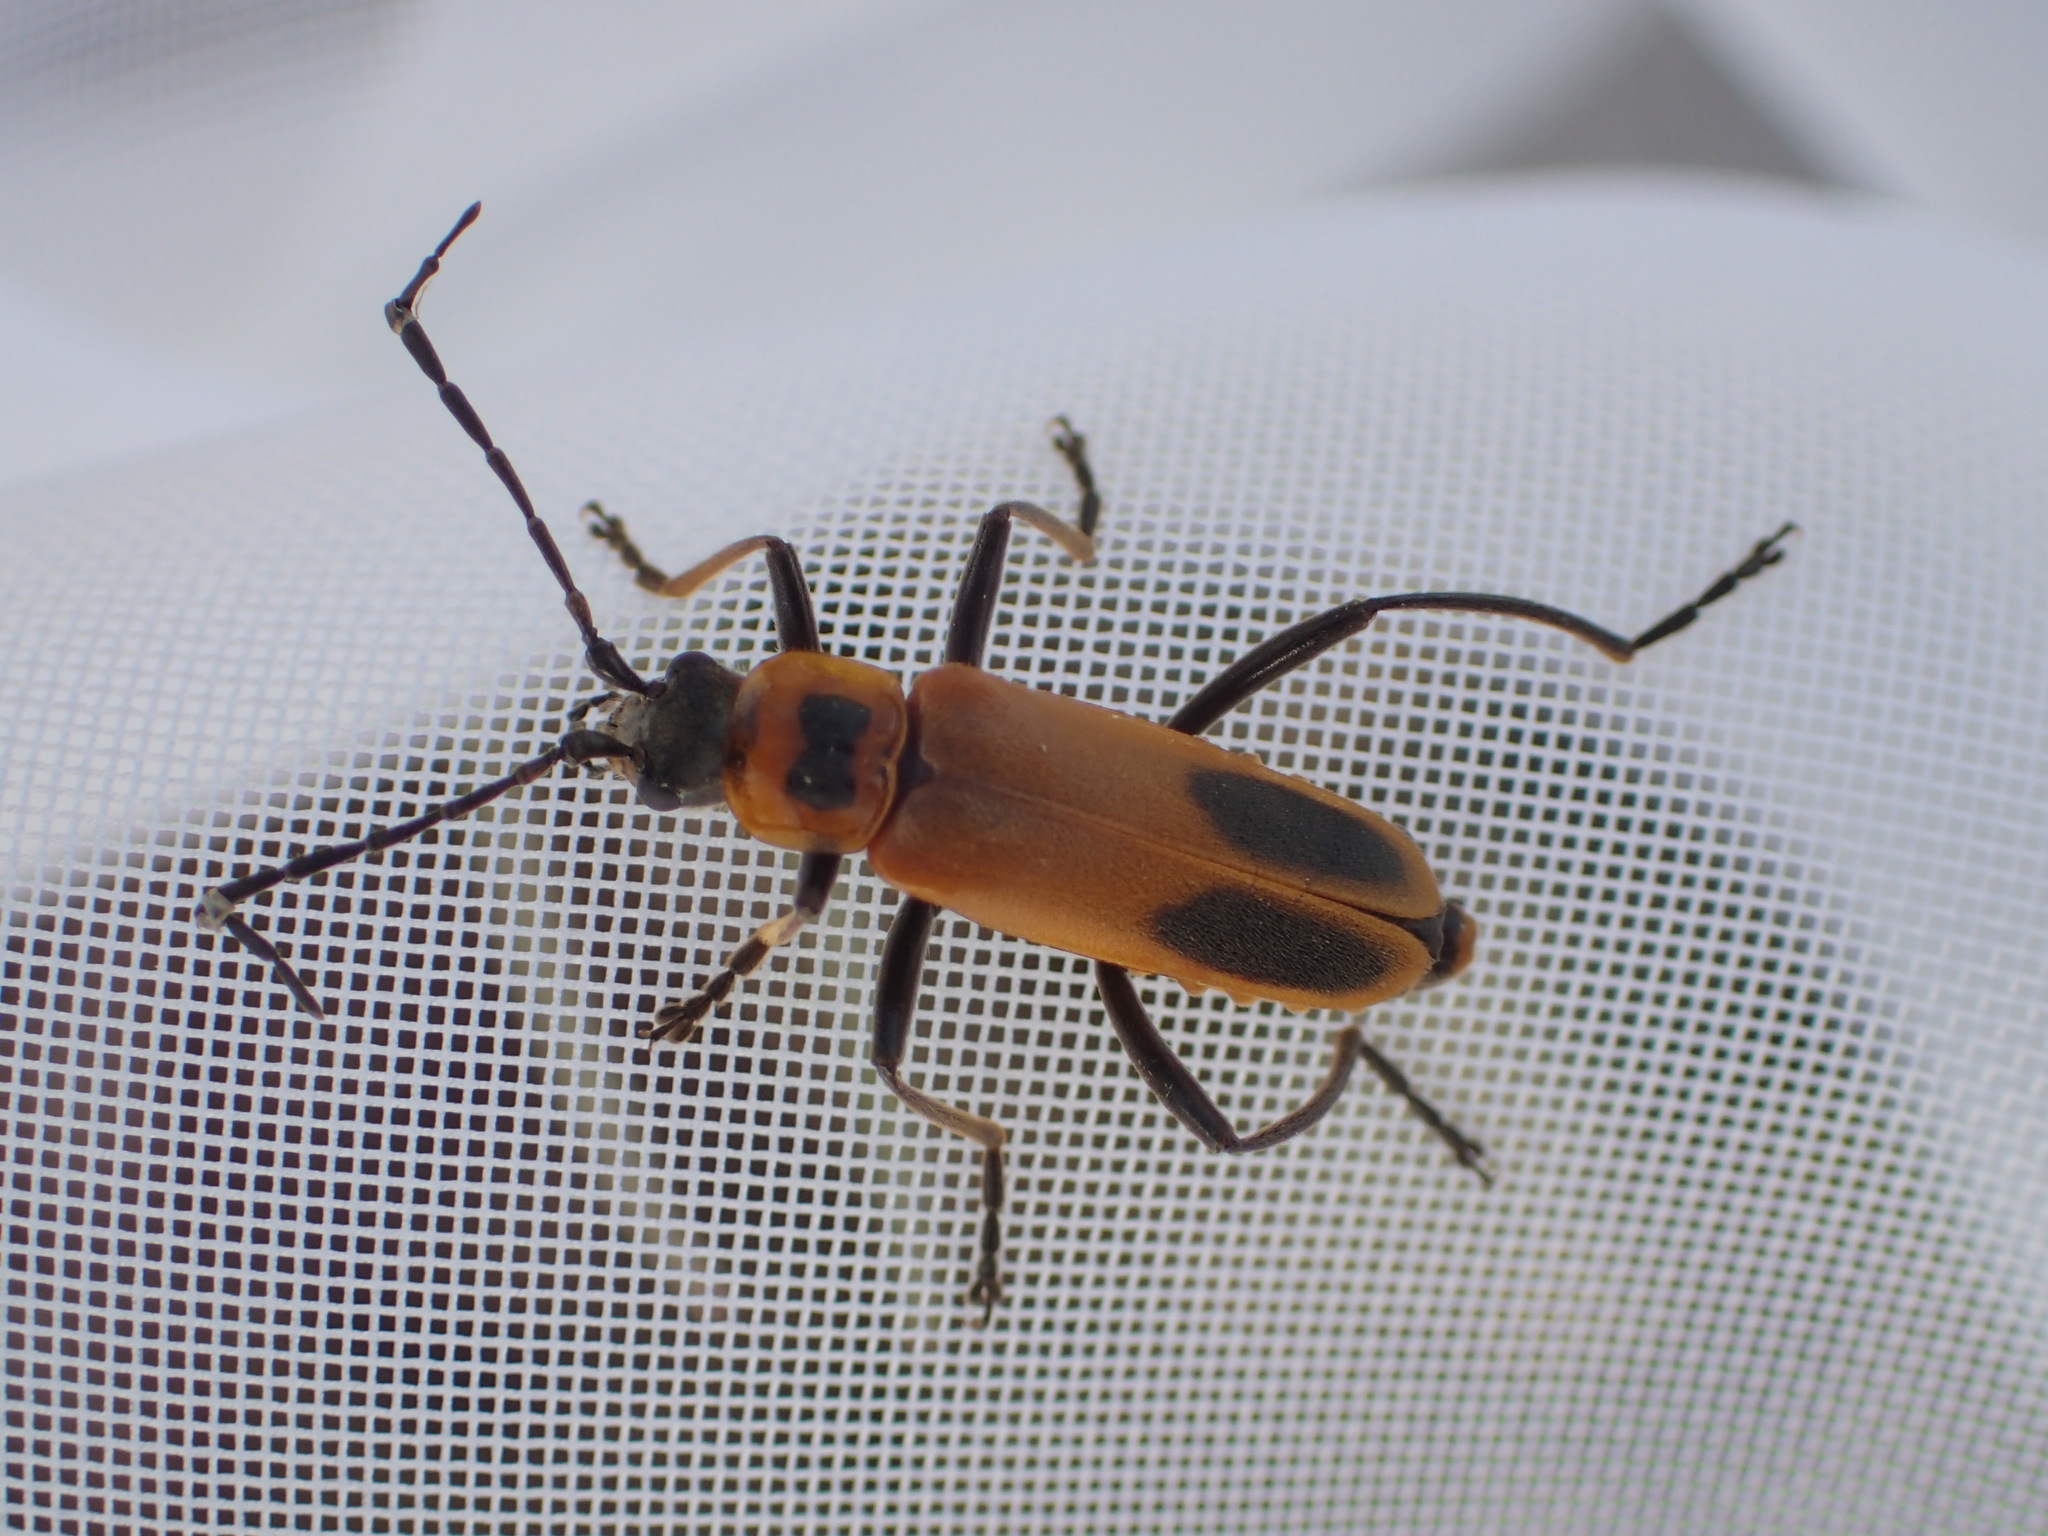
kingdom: Animalia
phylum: Arthropoda
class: Insecta
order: Coleoptera
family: Cantharidae
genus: Chauliognathus
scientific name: Chauliognathus pensylvanicus
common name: Goldenrod soldier beetle
